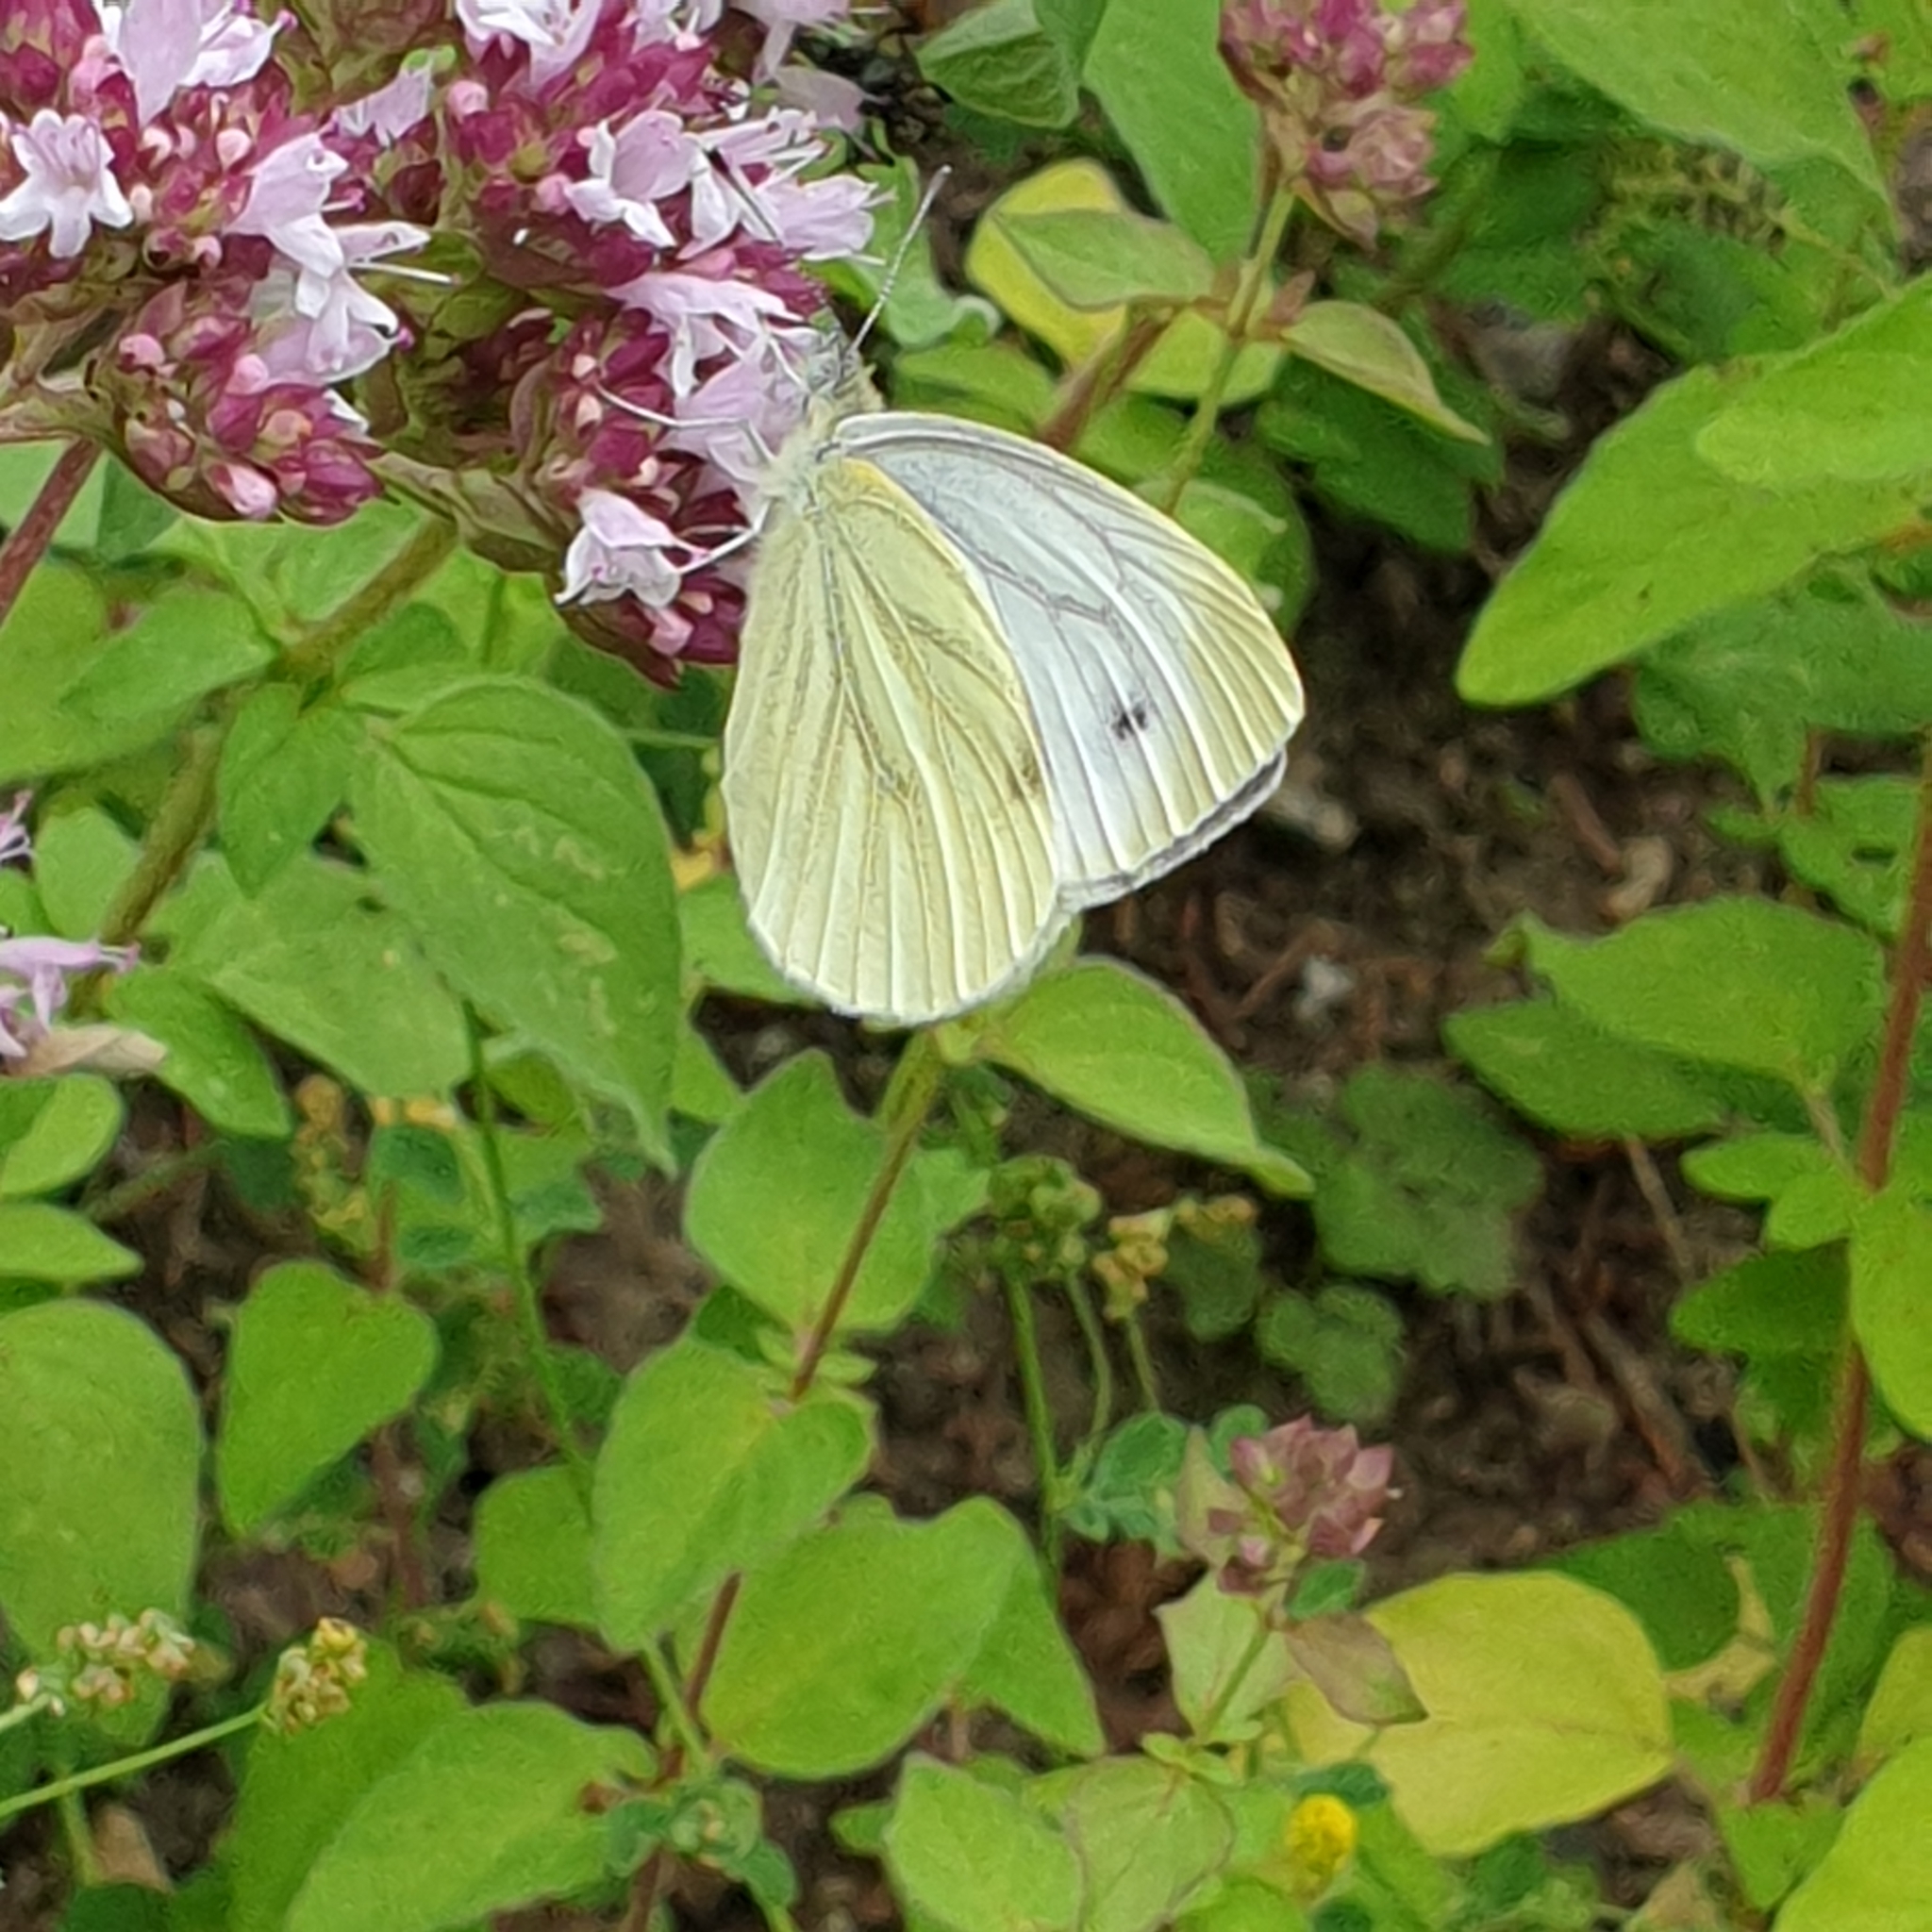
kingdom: Animalia
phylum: Arthropoda
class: Insecta
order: Lepidoptera
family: Pieridae
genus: Pieris
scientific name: Pieris napi
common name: Green-veined white
